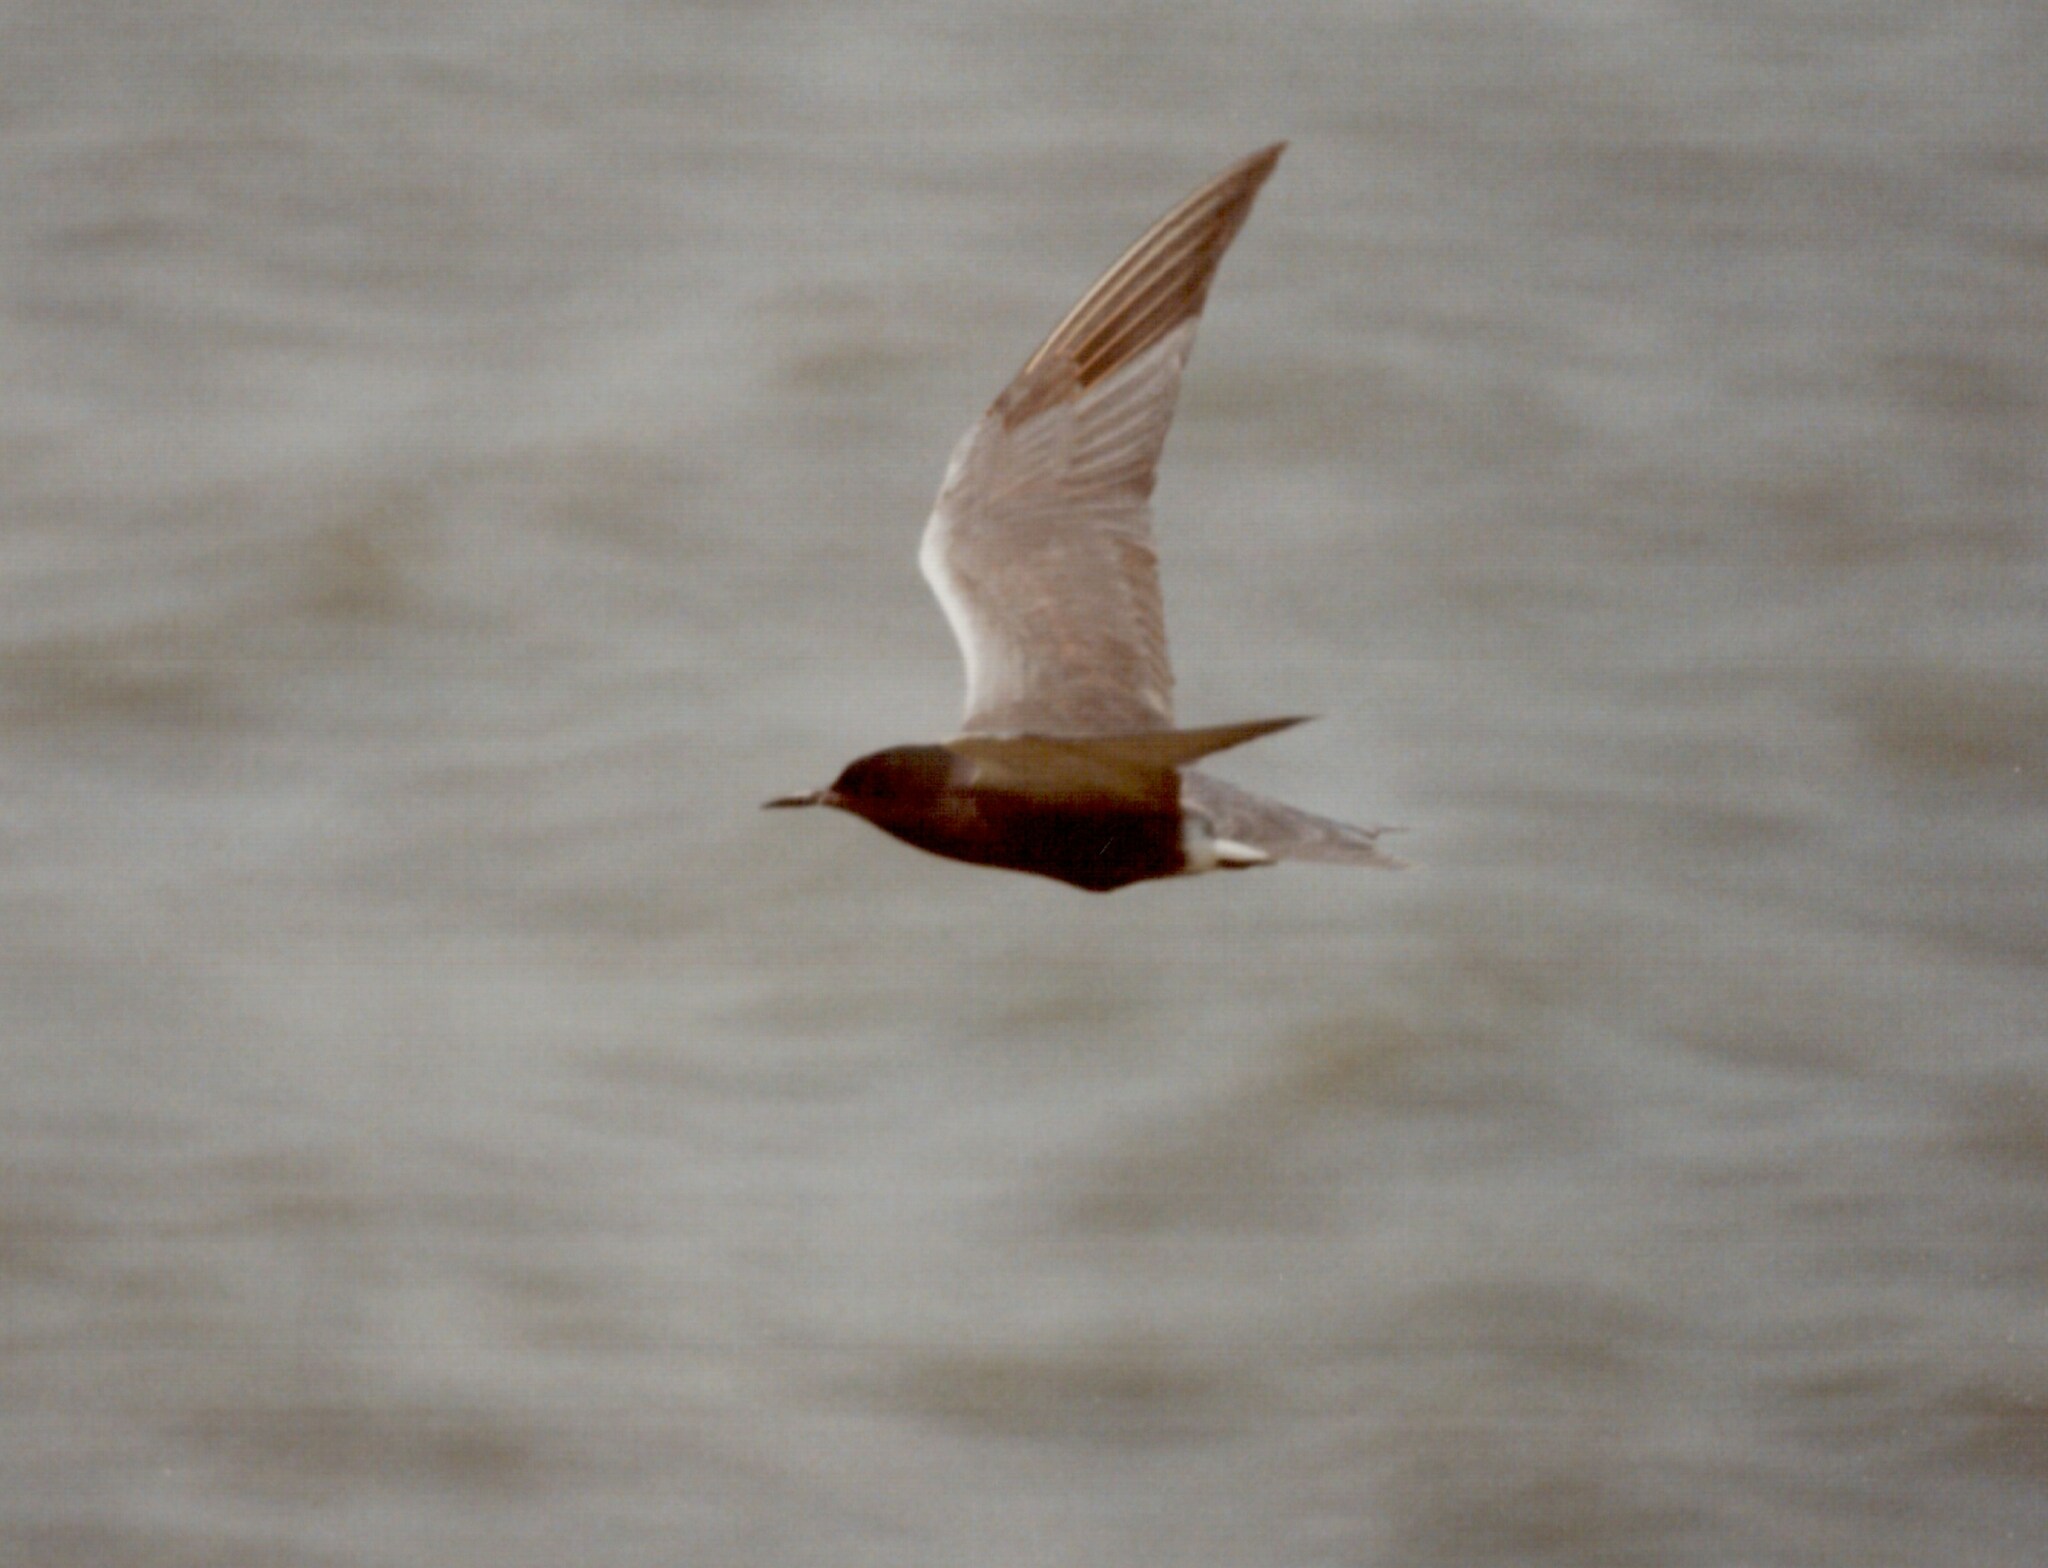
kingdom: Animalia
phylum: Chordata
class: Aves
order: Charadriiformes
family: Laridae
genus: Chlidonias
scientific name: Chlidonias niger
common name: Black tern
